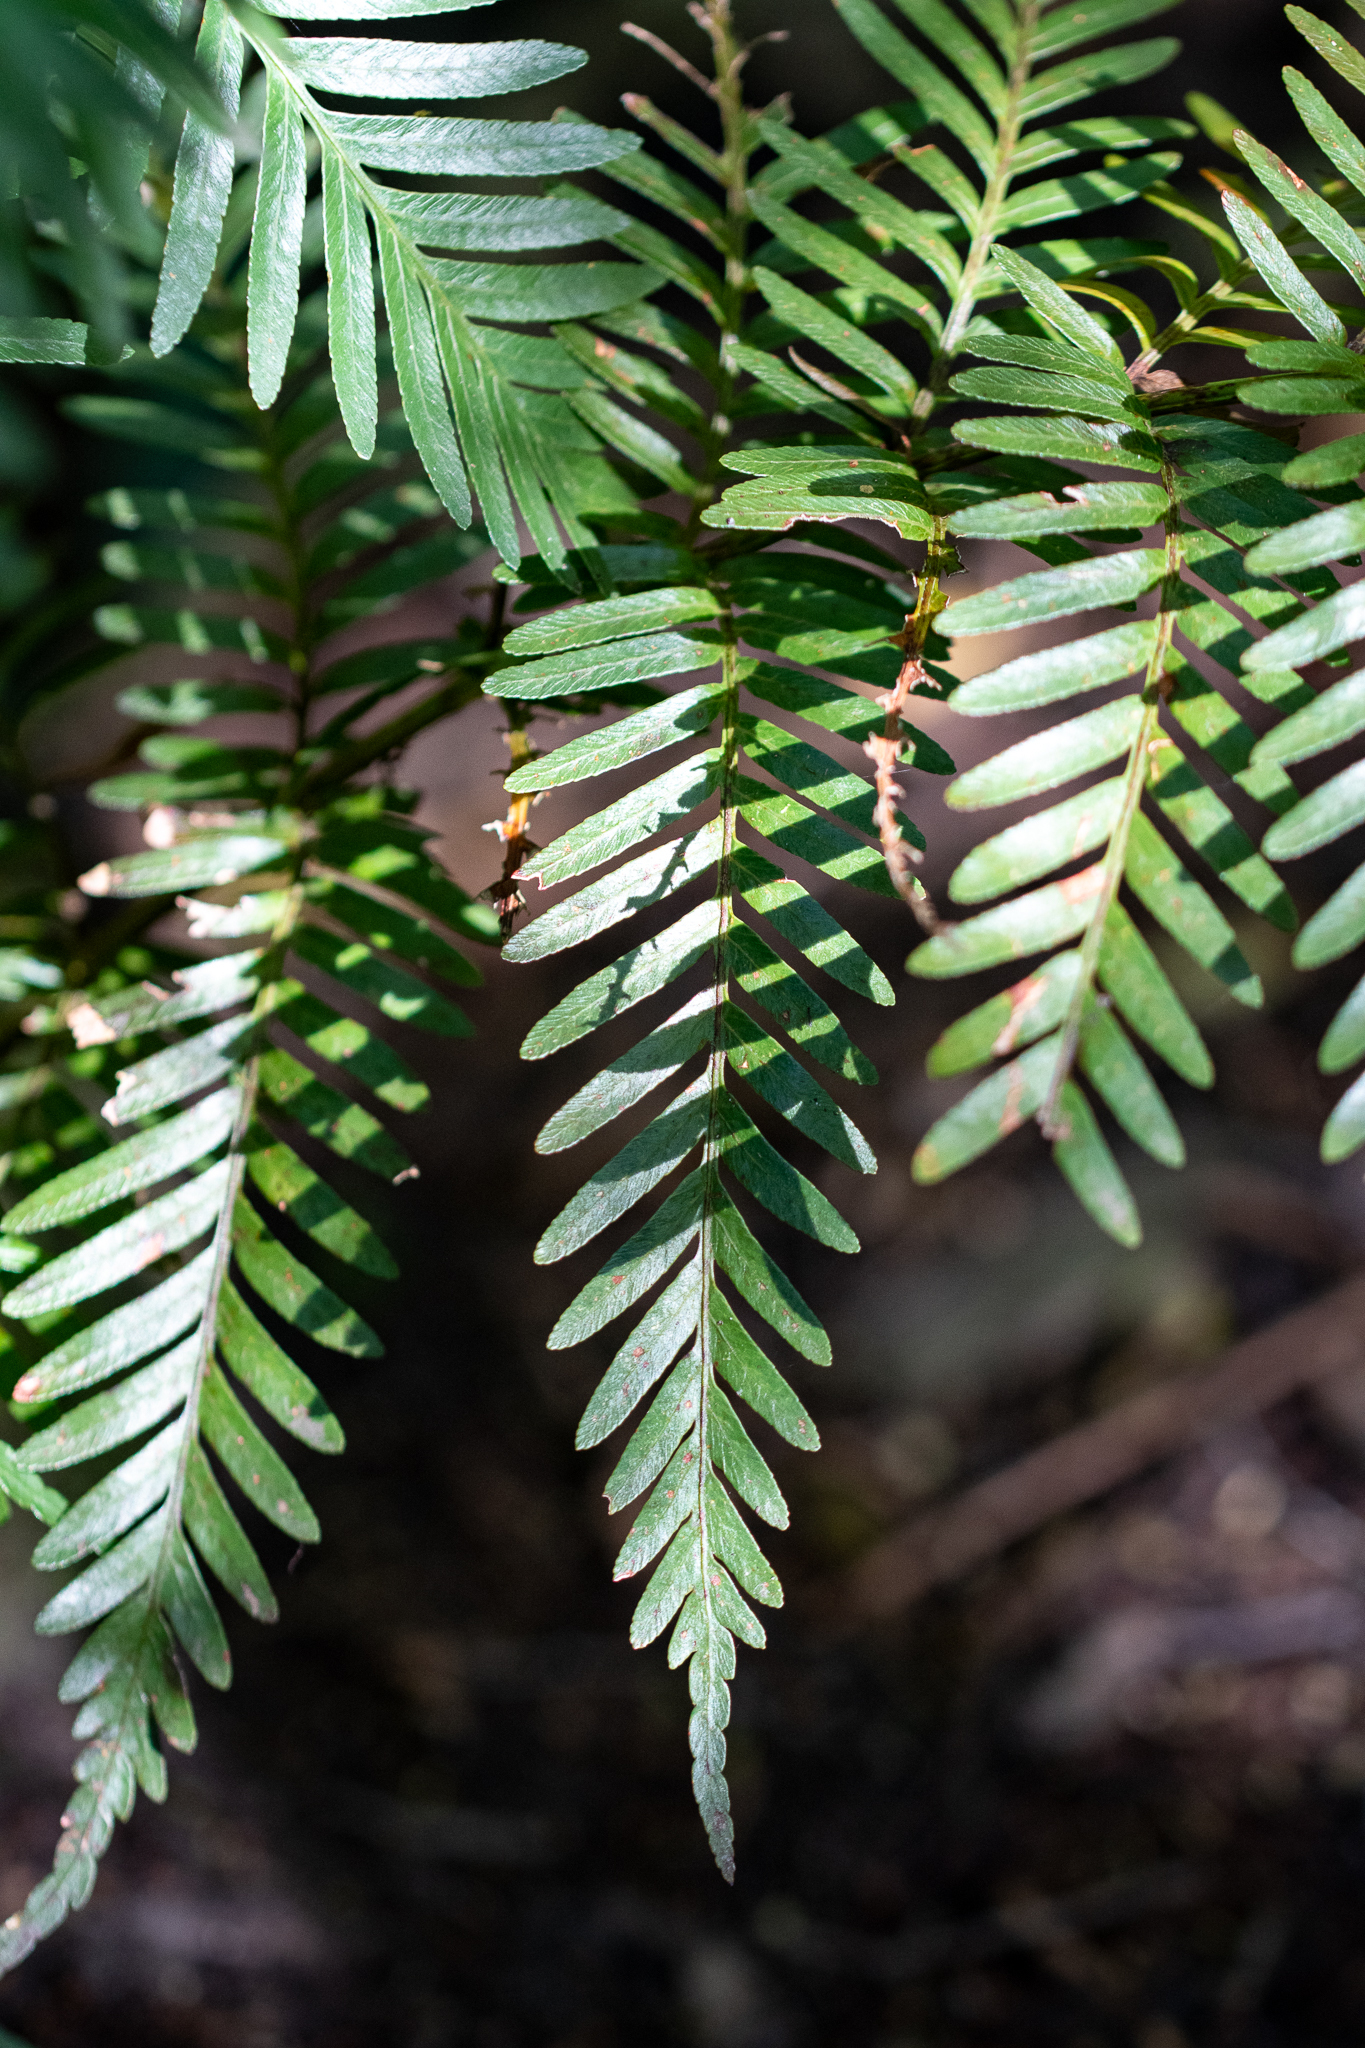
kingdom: Plantae
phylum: Tracheophyta
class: Polypodiopsida
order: Osmundales
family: Osmundaceae
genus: Todea
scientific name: Todea barbara
